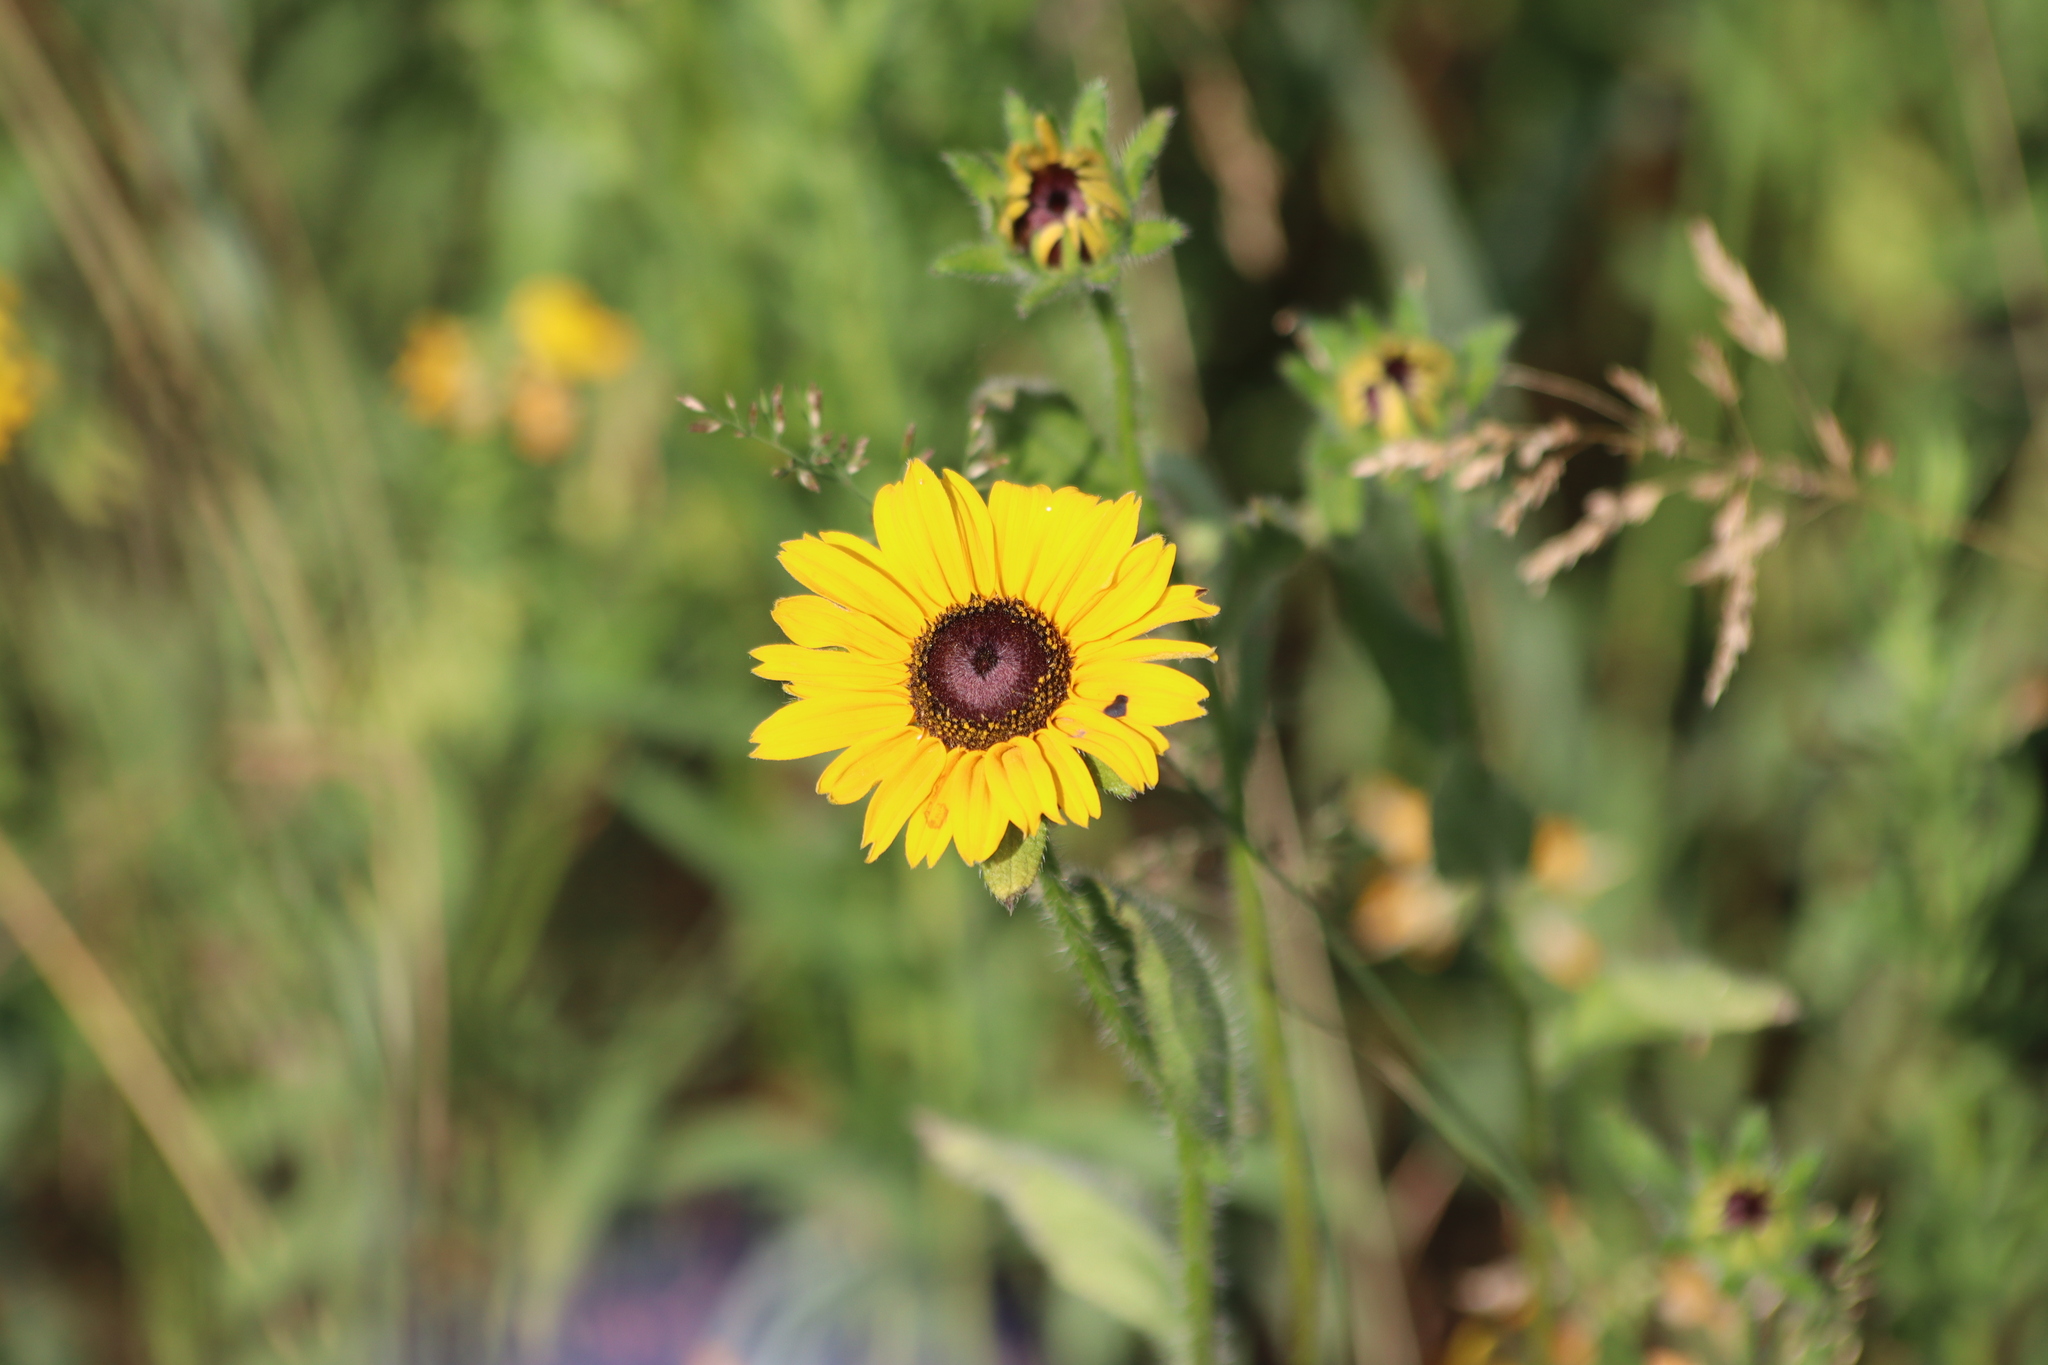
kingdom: Plantae
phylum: Tracheophyta
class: Magnoliopsida
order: Asterales
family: Asteraceae
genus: Rudbeckia
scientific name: Rudbeckia hirta
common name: Black-eyed-susan
